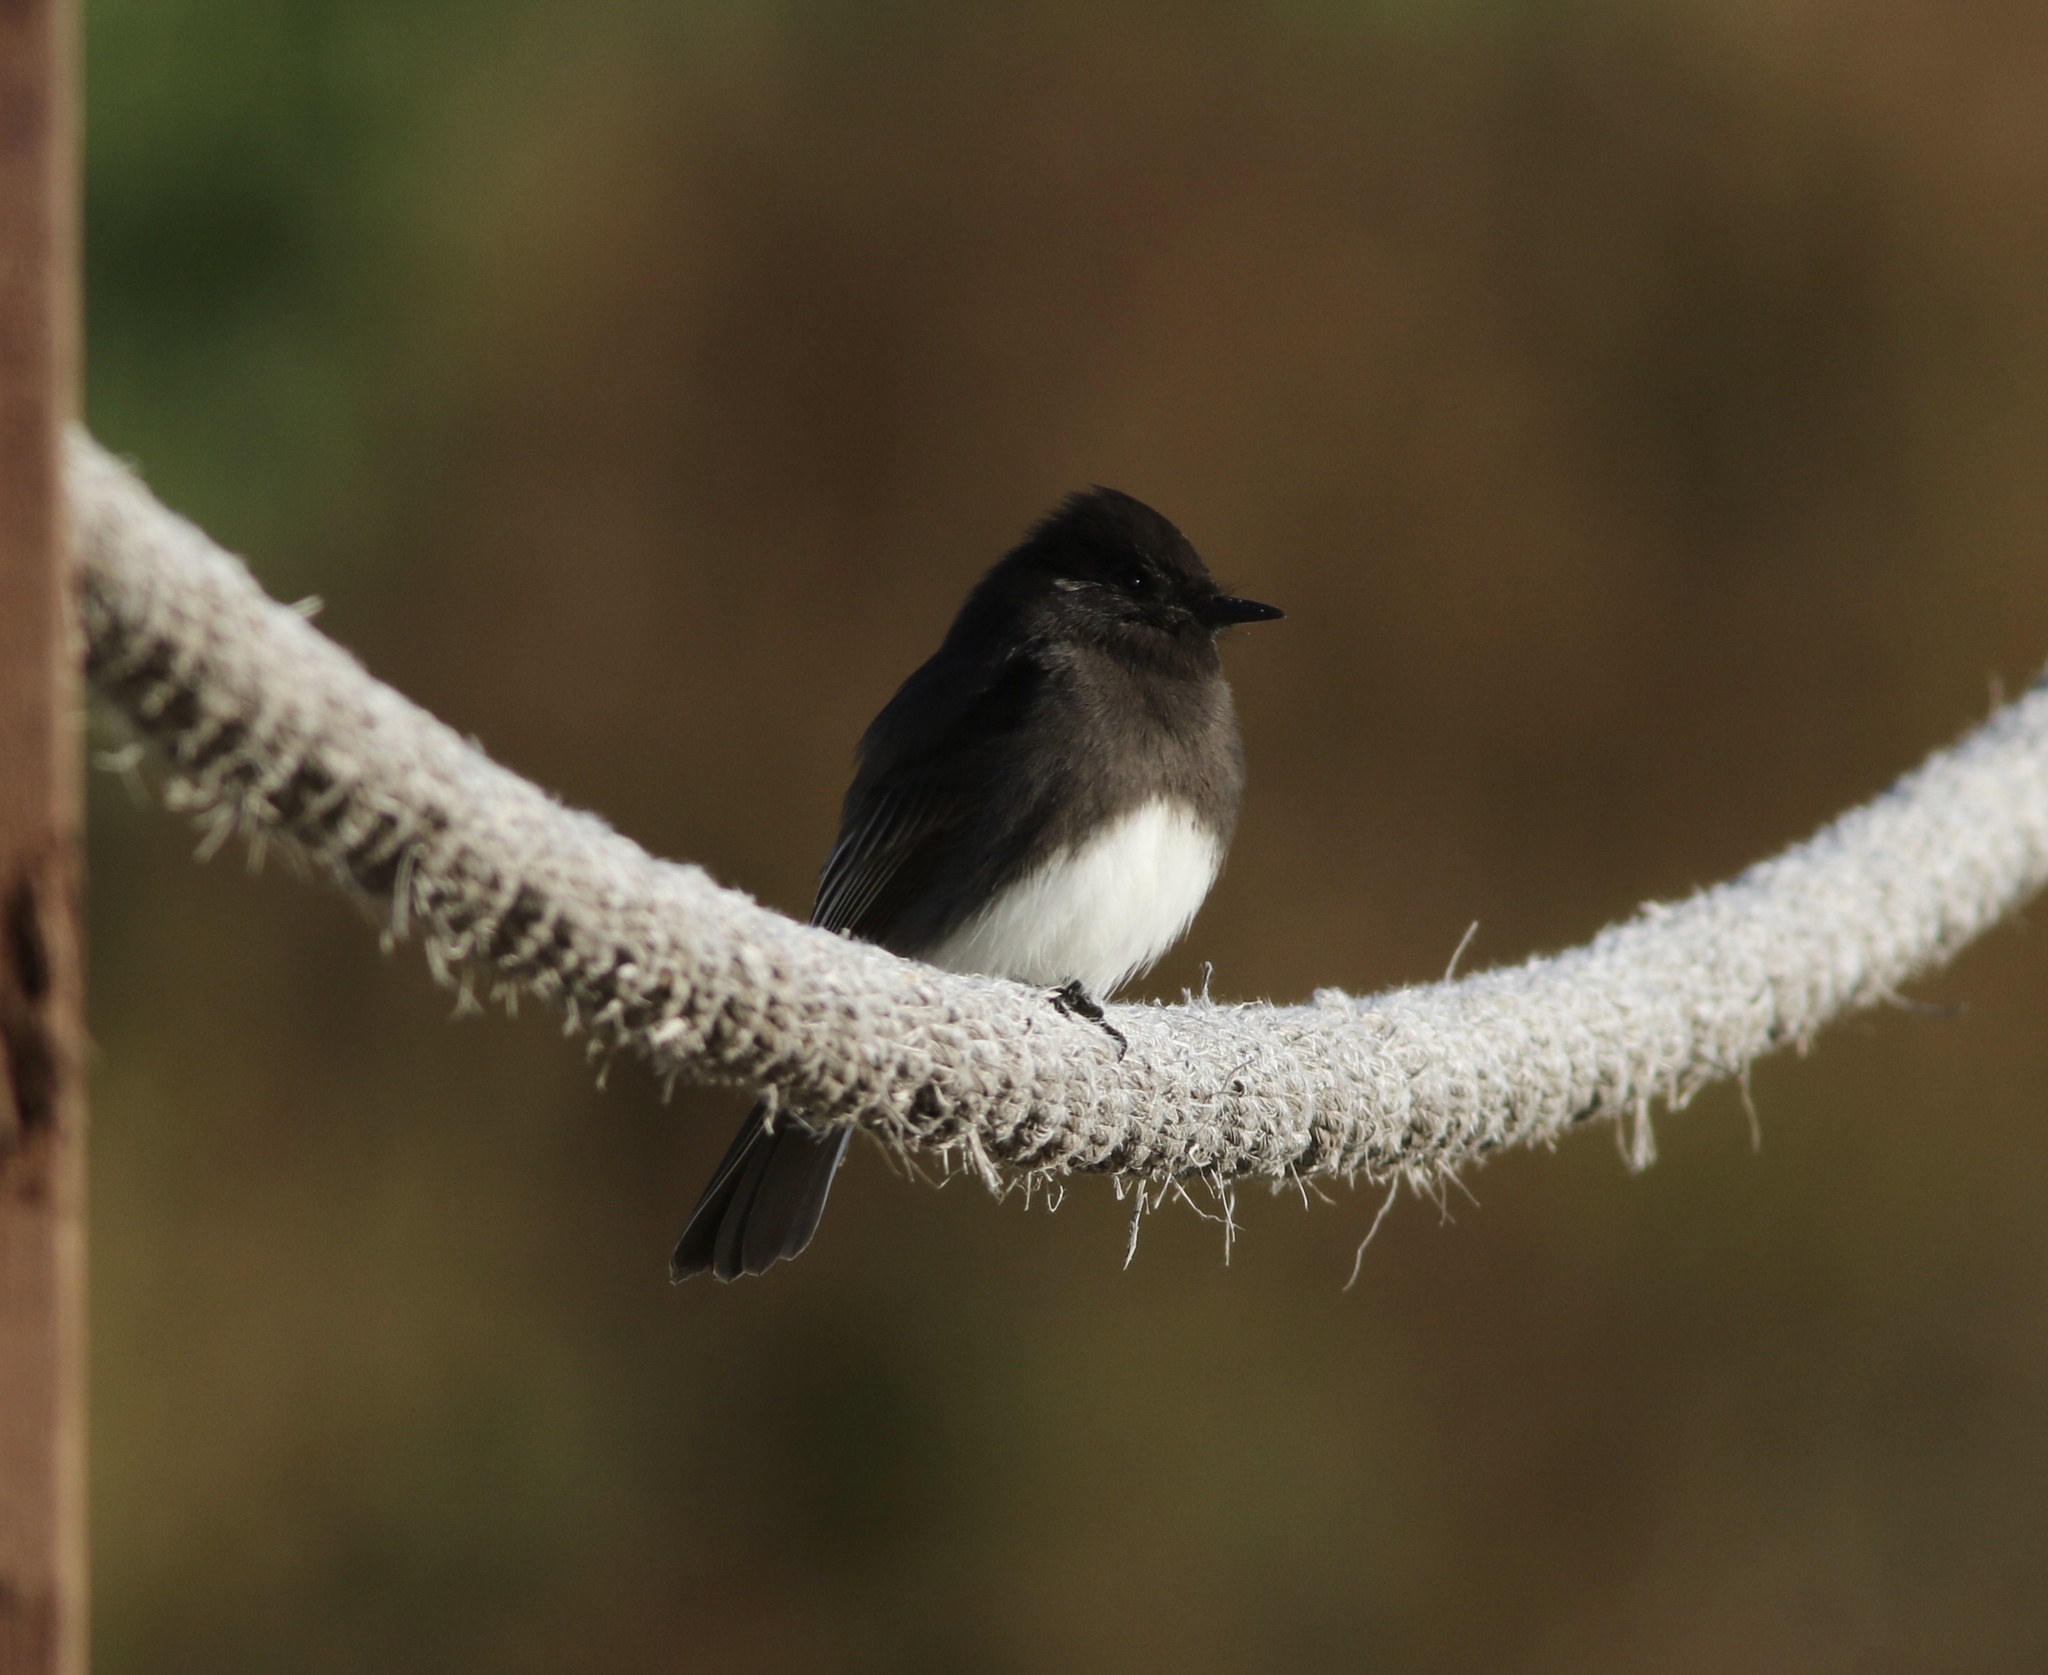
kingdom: Animalia
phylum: Chordata
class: Aves
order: Passeriformes
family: Tyrannidae
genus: Sayornis
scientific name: Sayornis nigricans
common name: Black phoebe
